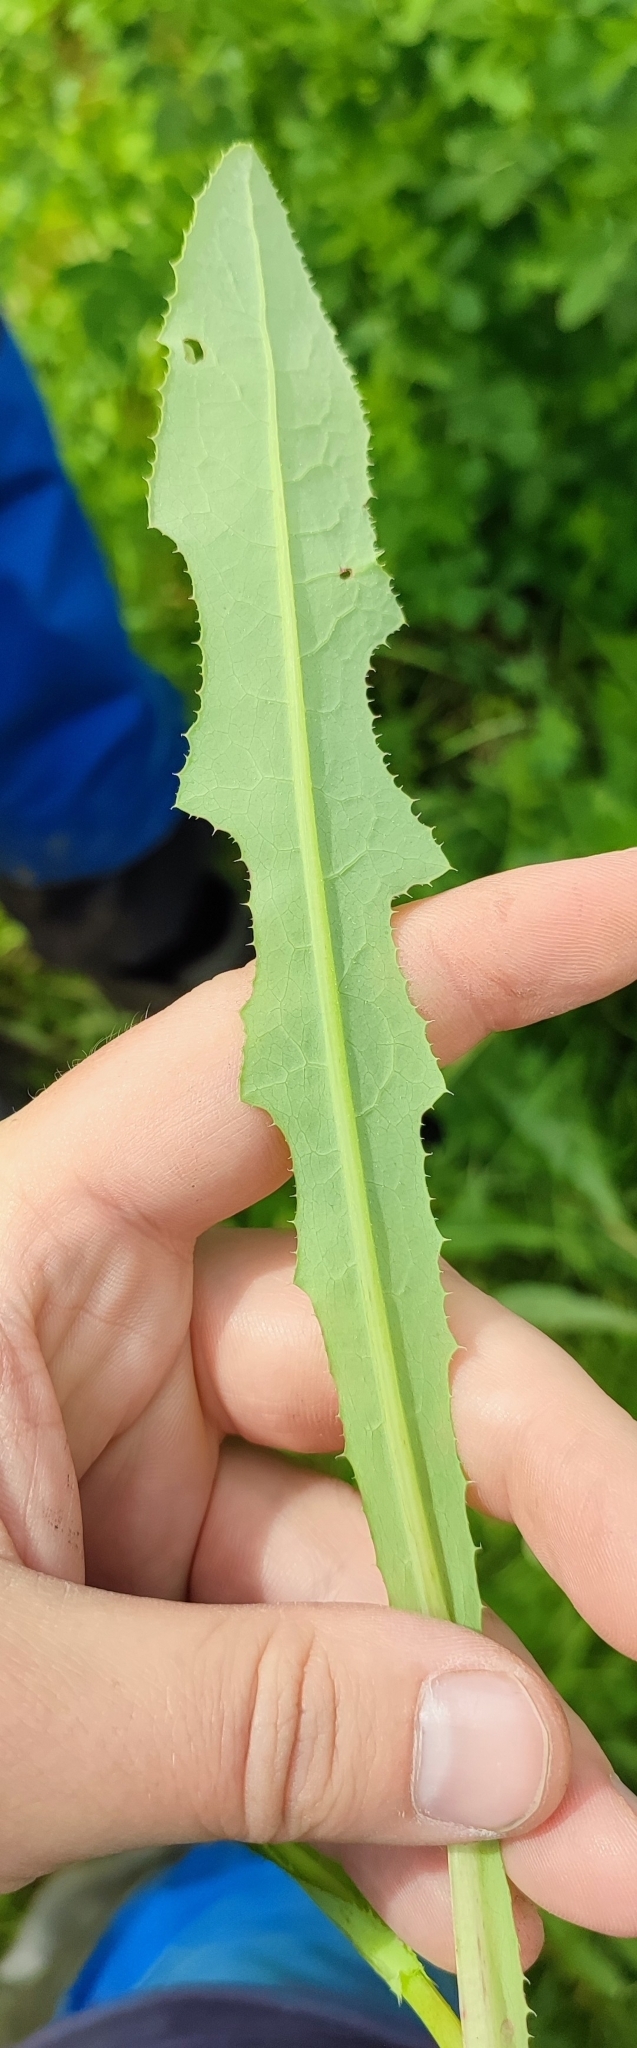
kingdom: Plantae
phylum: Tracheophyta
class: Magnoliopsida
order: Asterales
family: Asteraceae
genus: Sonchus
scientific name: Sonchus arvensis
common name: Perennial sow-thistle
